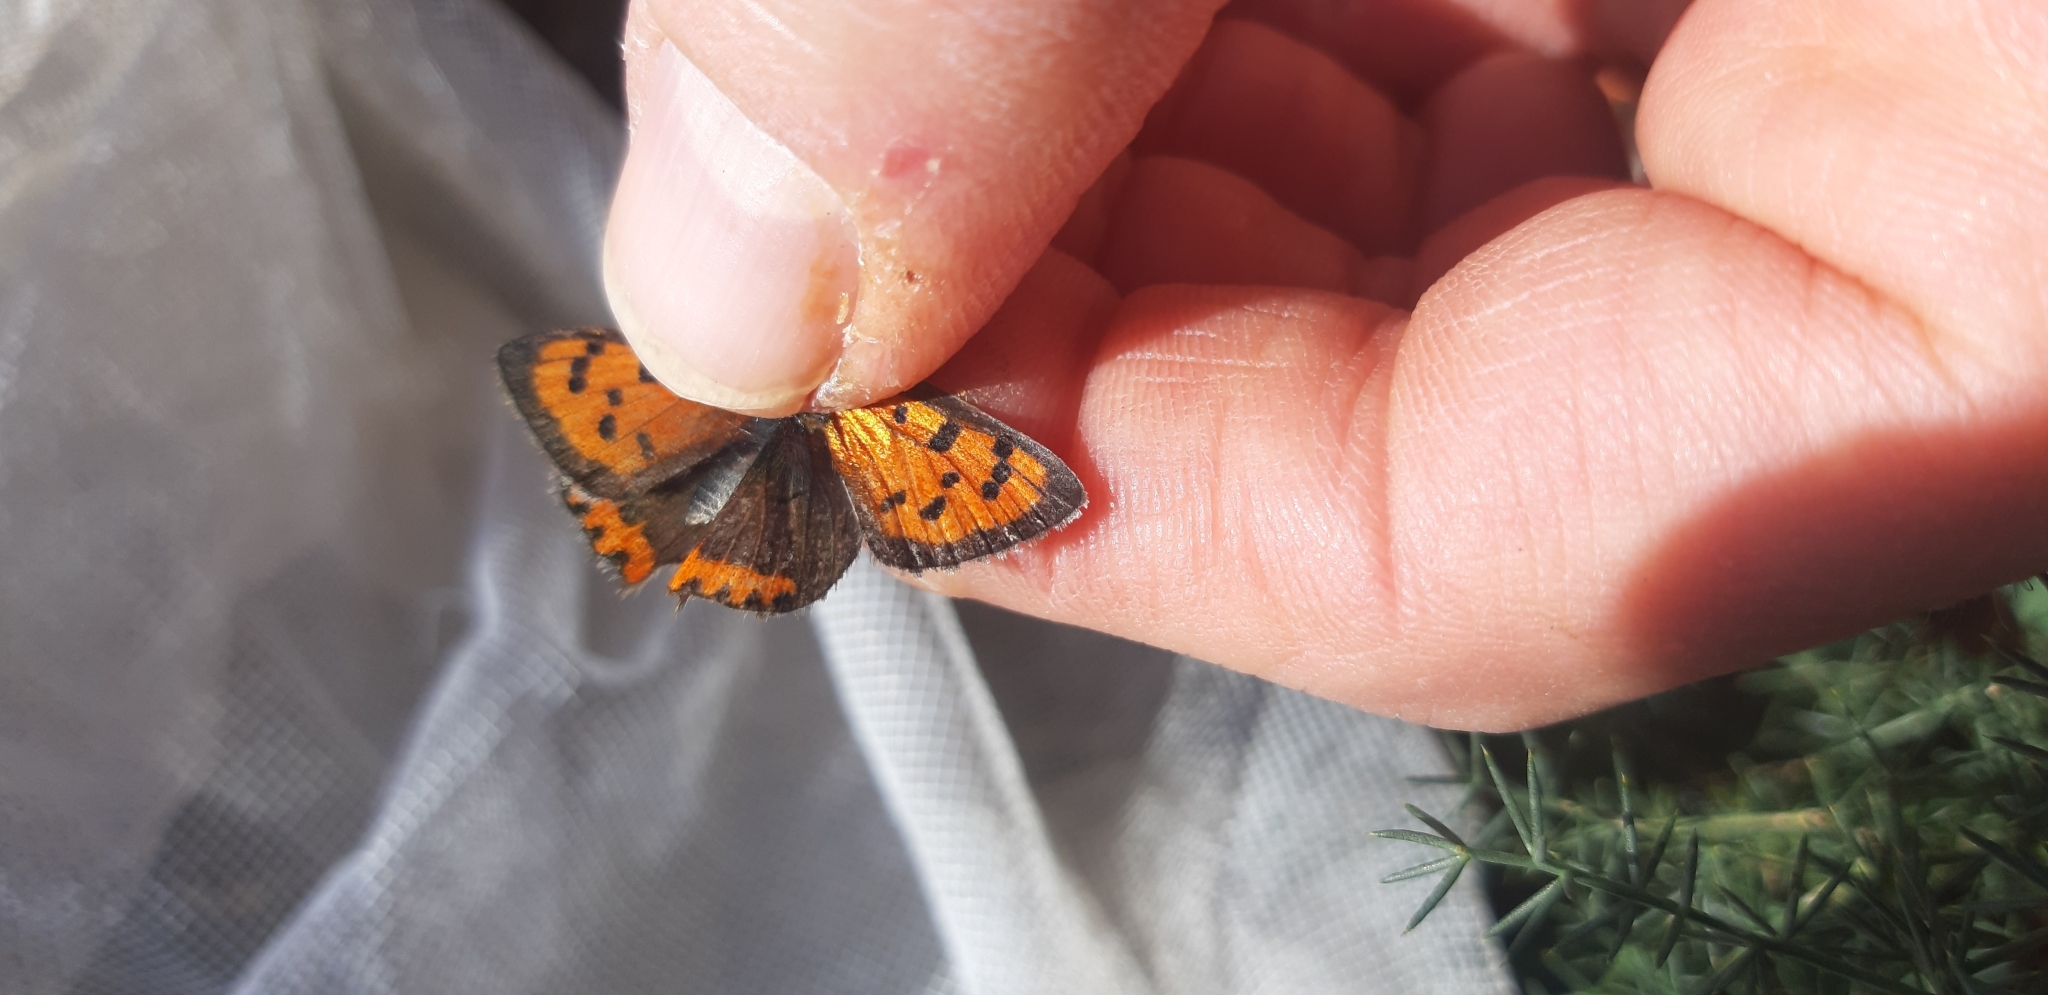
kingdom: Animalia
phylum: Arthropoda
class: Insecta
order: Lepidoptera
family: Lycaenidae
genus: Lycaena
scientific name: Lycaena phlaeas
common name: Small copper
